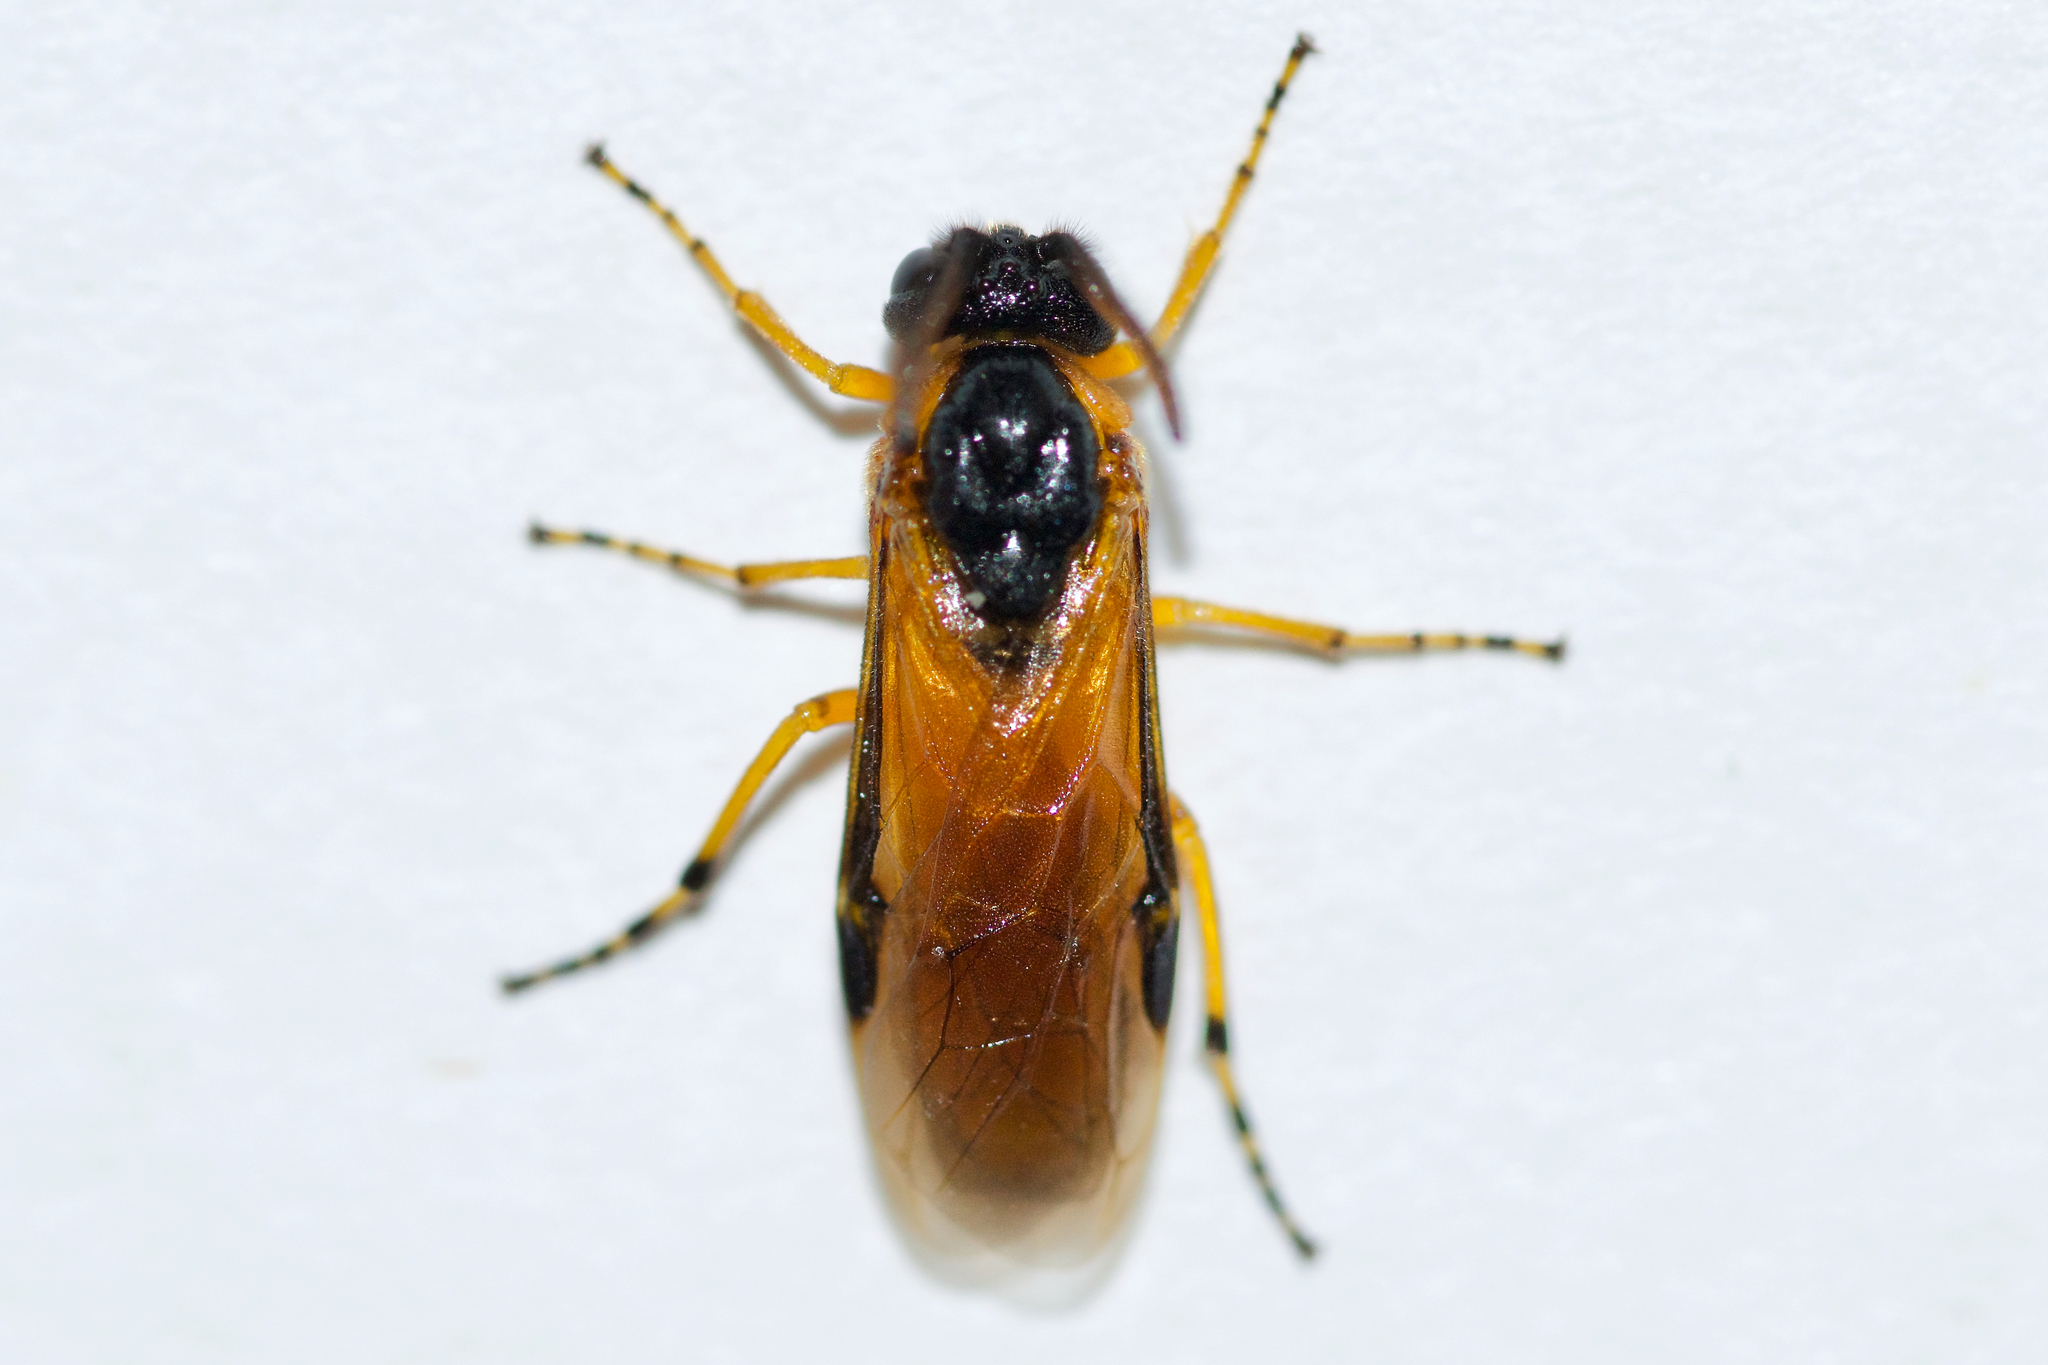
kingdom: Animalia
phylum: Arthropoda
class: Insecta
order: Hymenoptera
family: Argidae
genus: Arge
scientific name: Arge ochropus
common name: Argid sawfly
